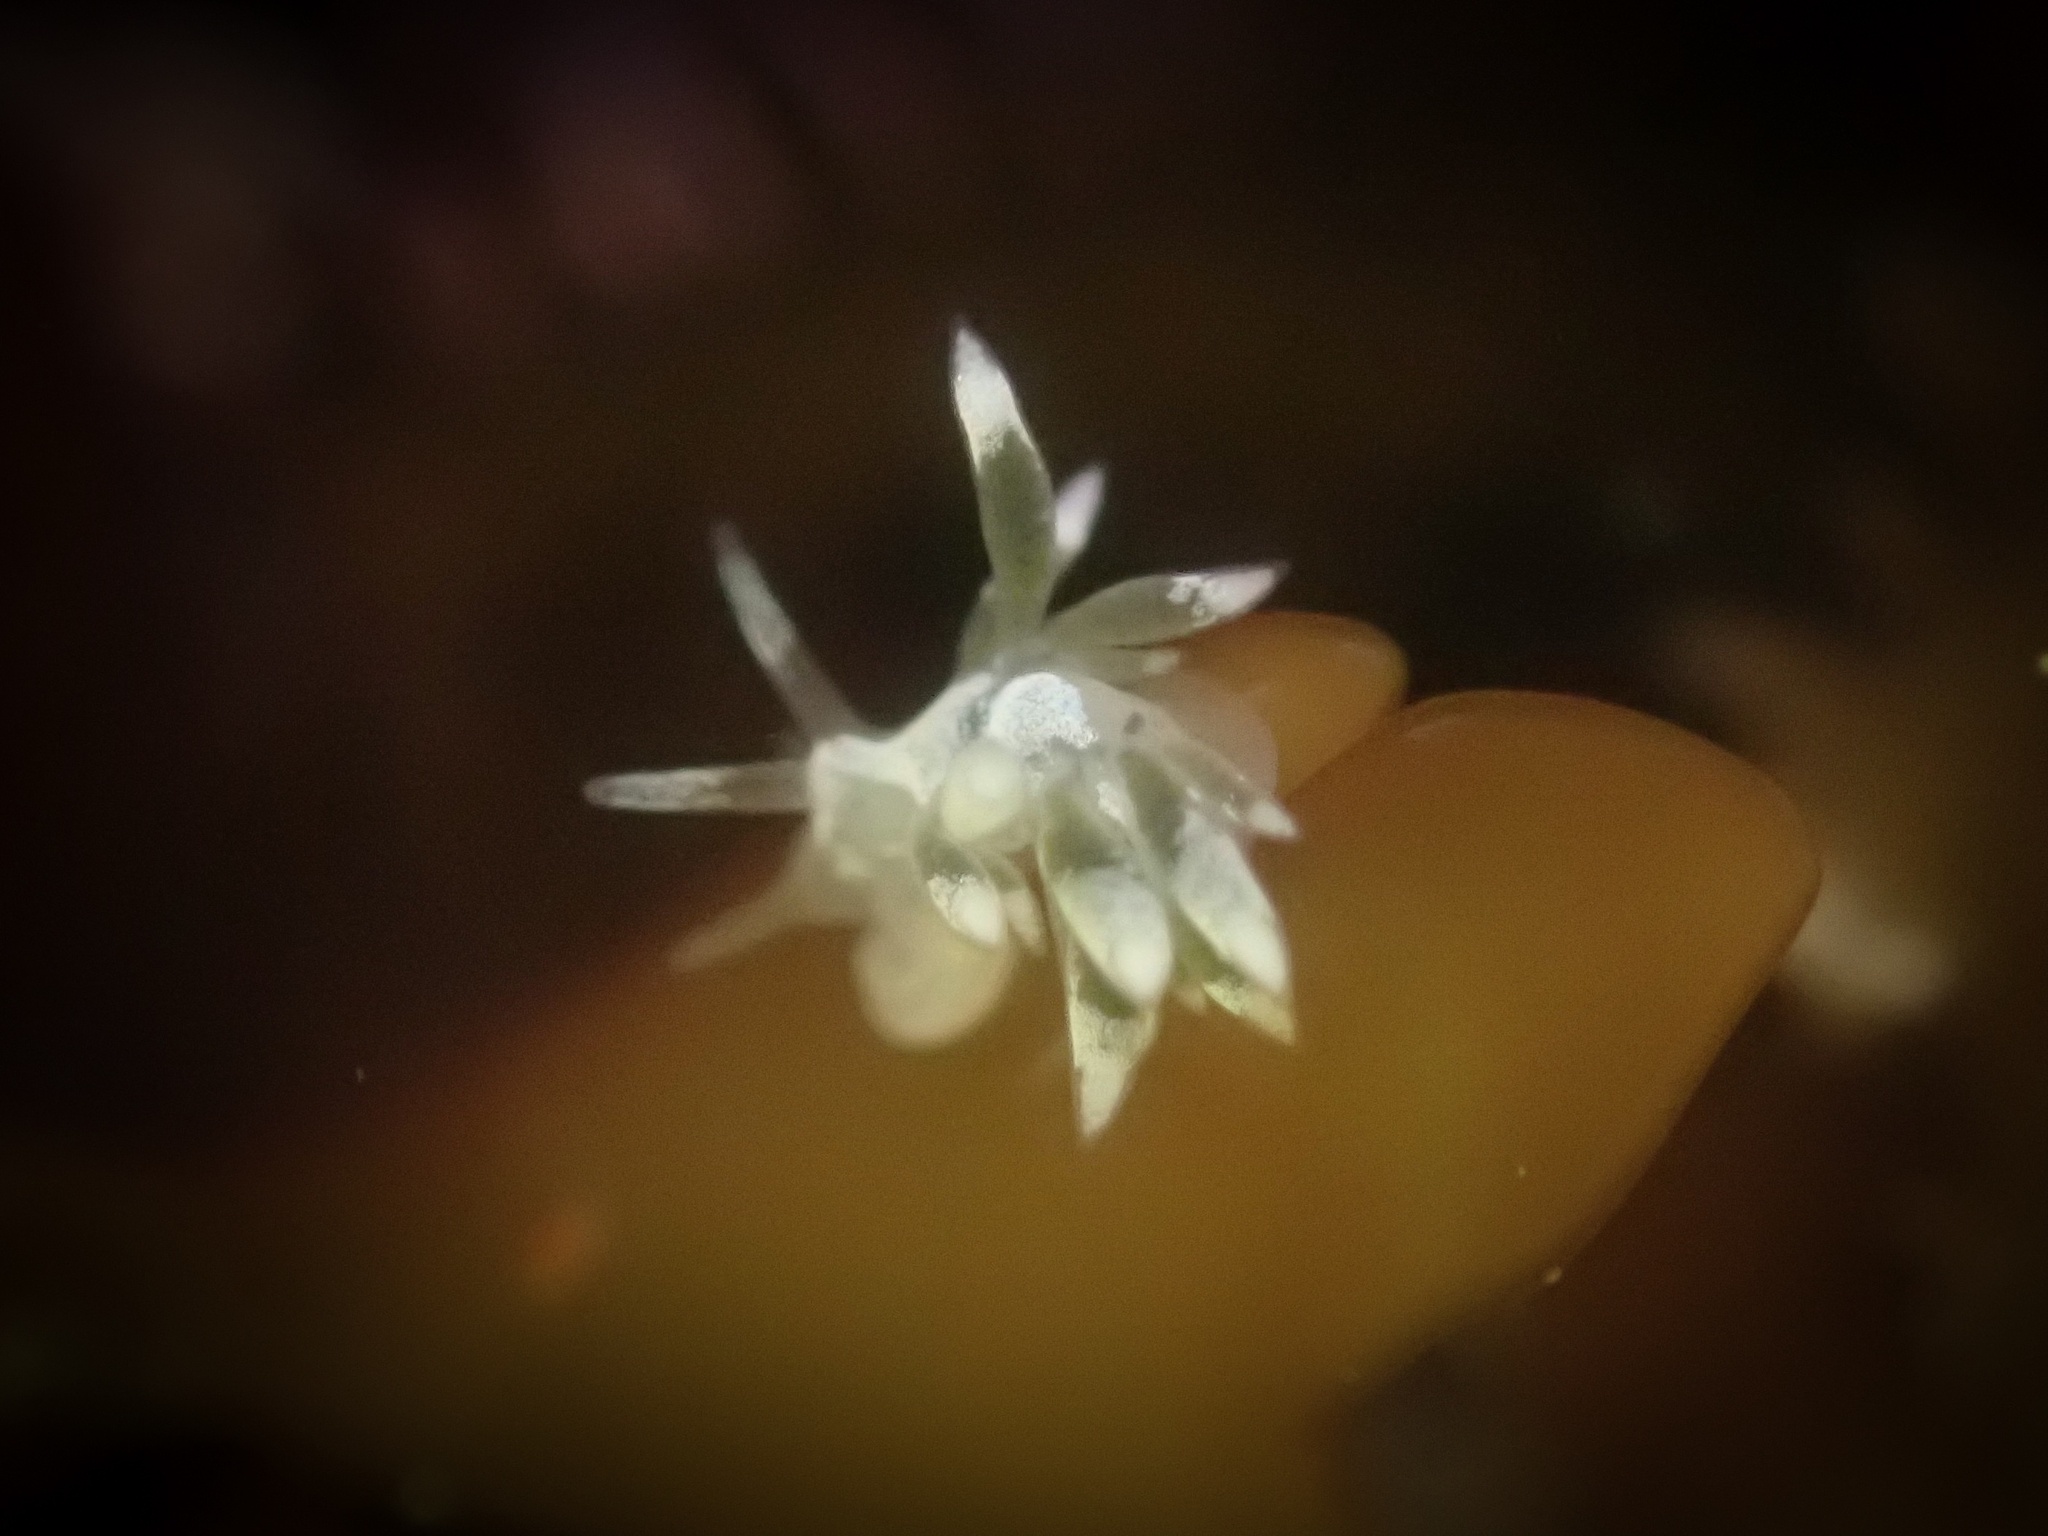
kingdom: Animalia
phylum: Mollusca
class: Gastropoda
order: Nudibranchia
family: Trinchesiidae
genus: Trinchesia
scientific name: Trinchesia albocrusta
